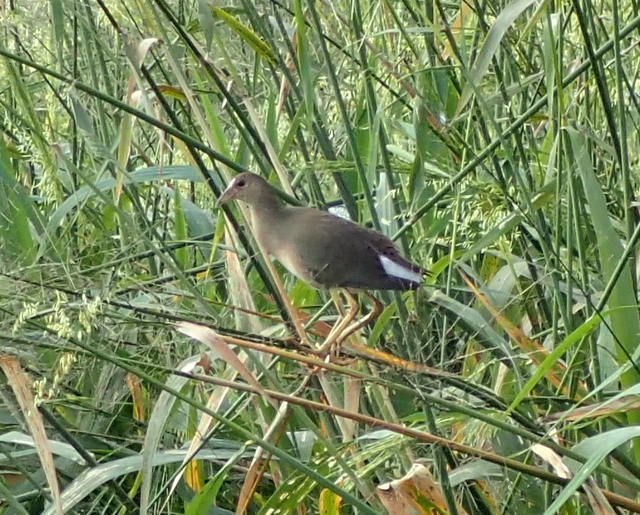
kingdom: Animalia
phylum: Chordata
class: Aves
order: Gruiformes
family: Rallidae
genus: Porphyrio
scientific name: Porphyrio martinica
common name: Purple gallinule
